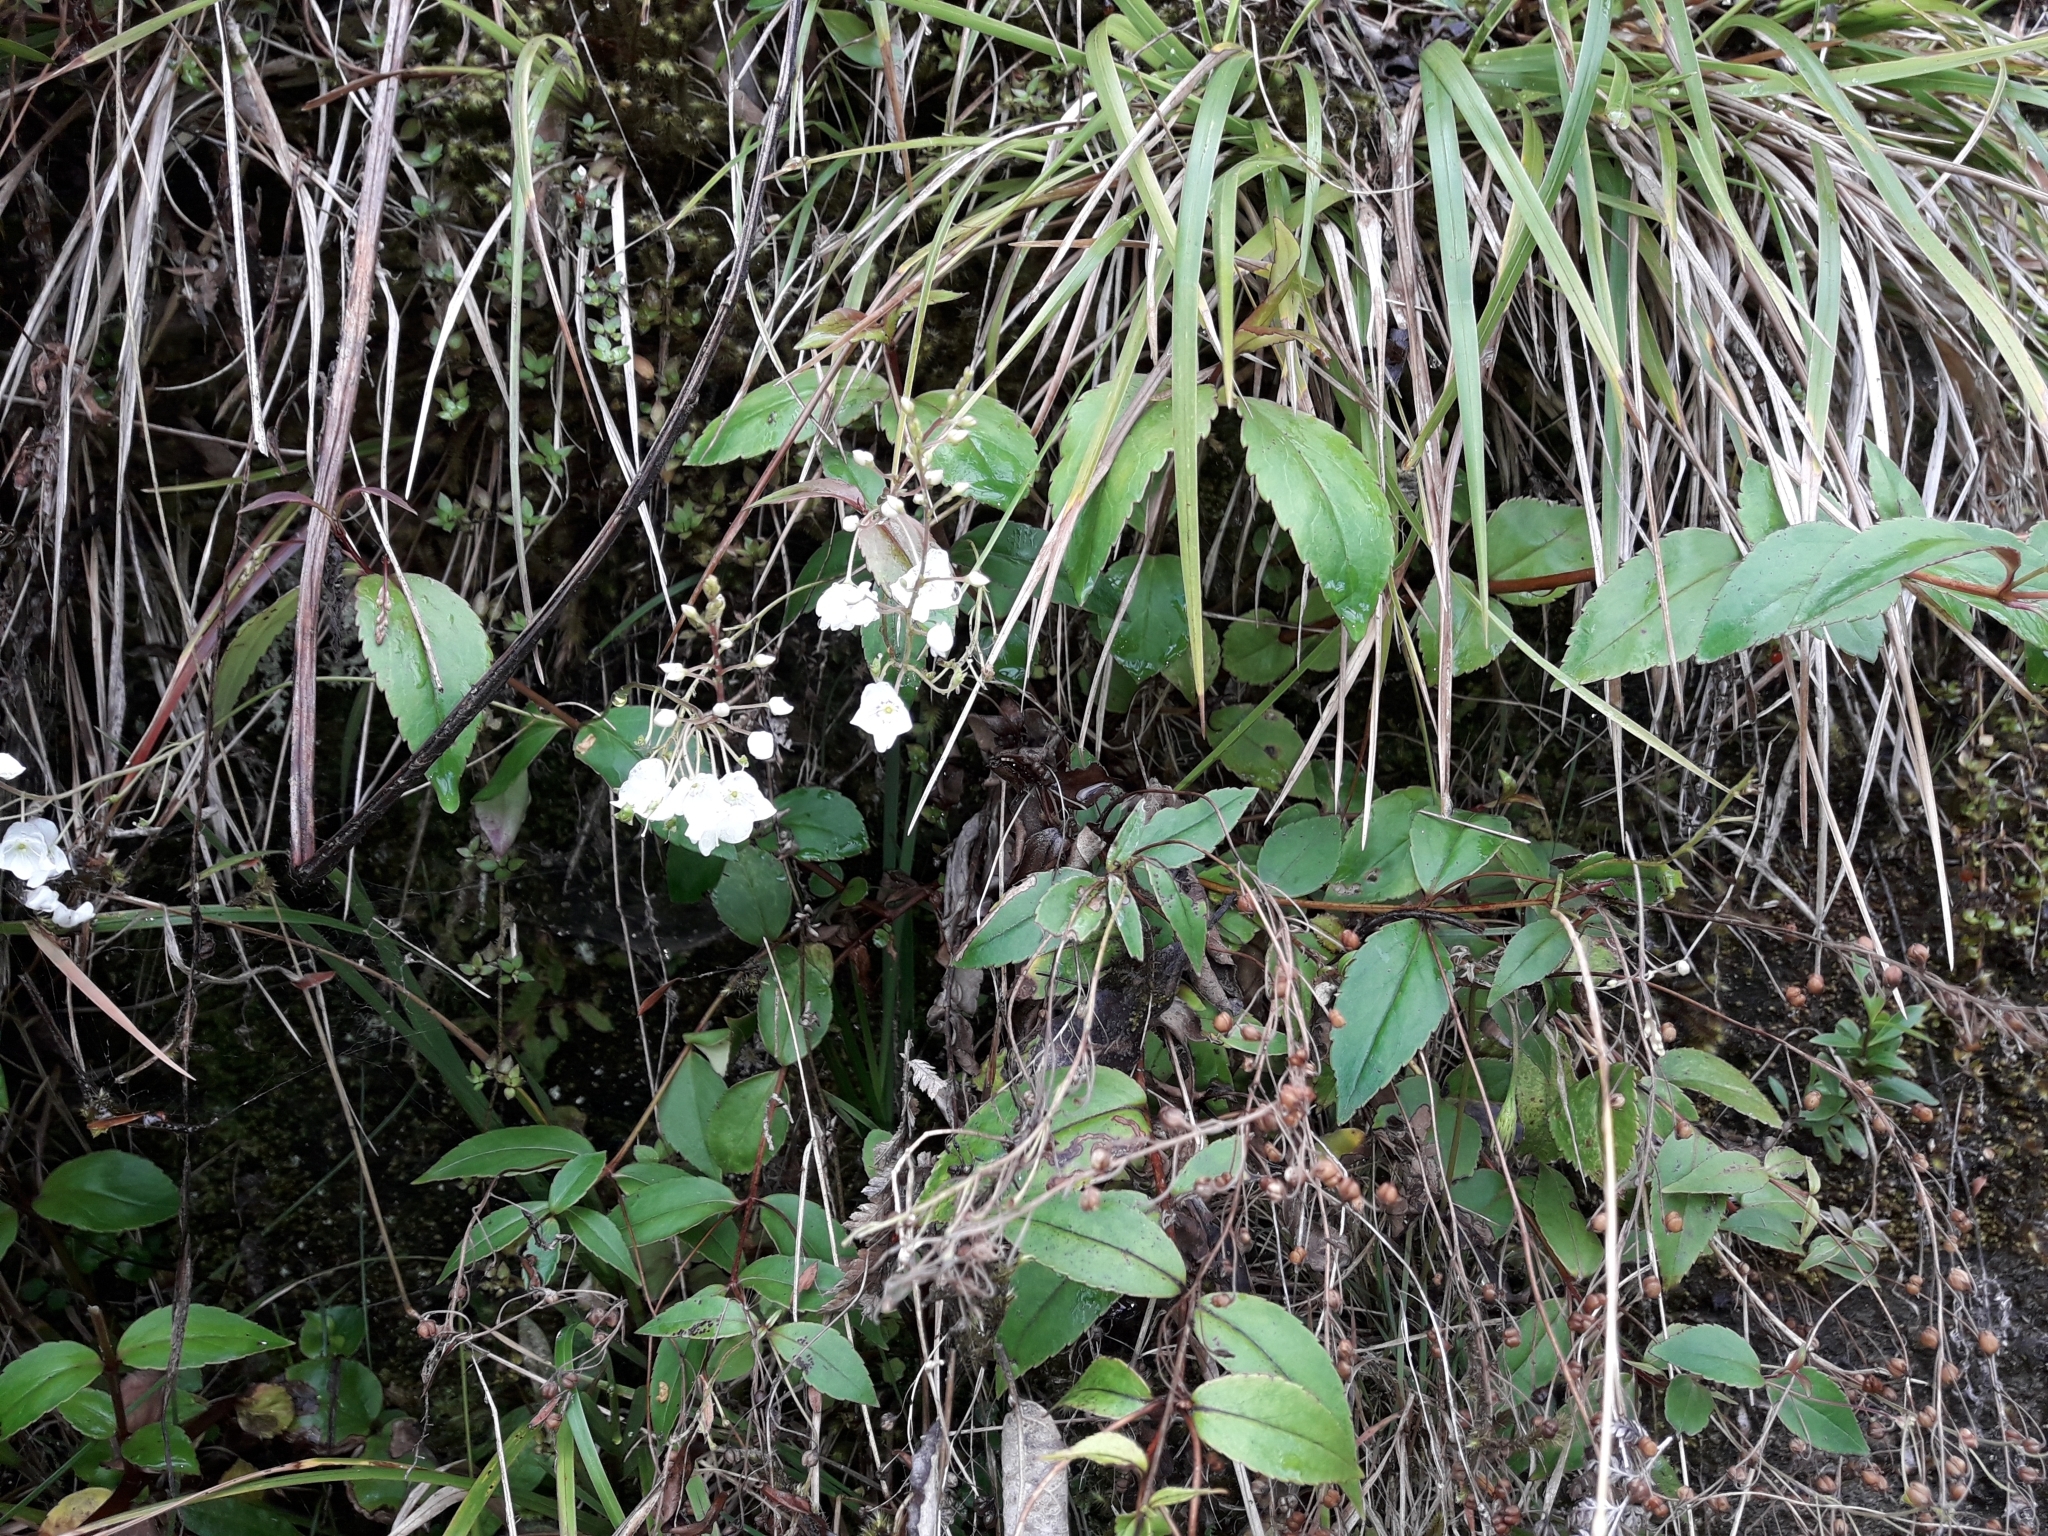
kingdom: Plantae
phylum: Tracheophyta
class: Magnoliopsida
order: Lamiales
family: Plantaginaceae
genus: Veronica
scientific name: Veronica lanceolata
